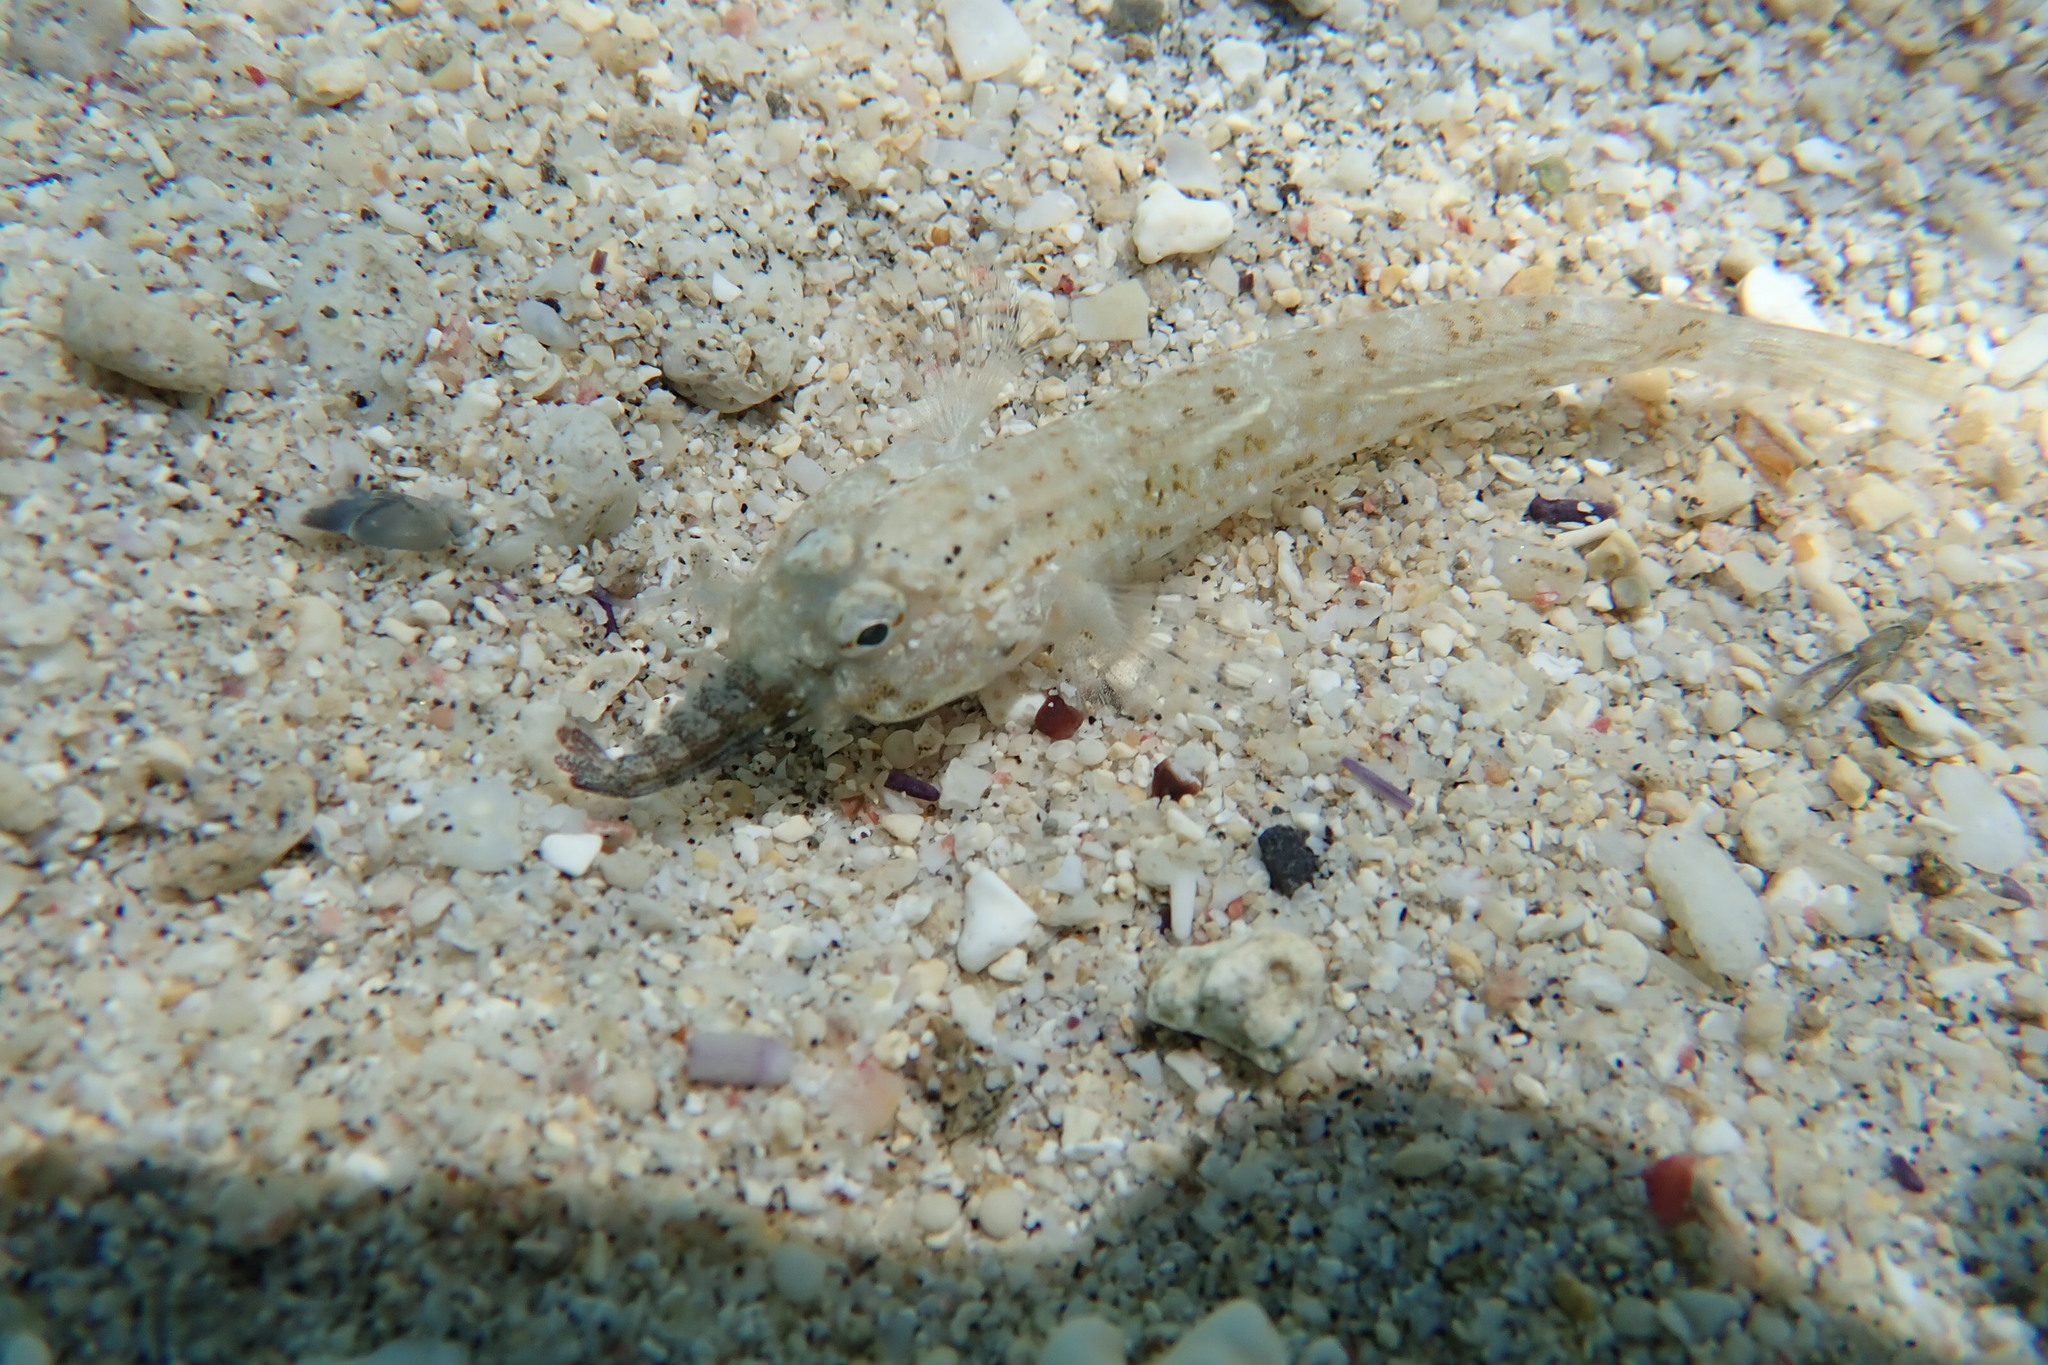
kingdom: Animalia
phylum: Chordata
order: Perciformes
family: Gobiidae
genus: Bathygobius
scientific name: Bathygobius cocosensis
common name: Cocos frillgoby
